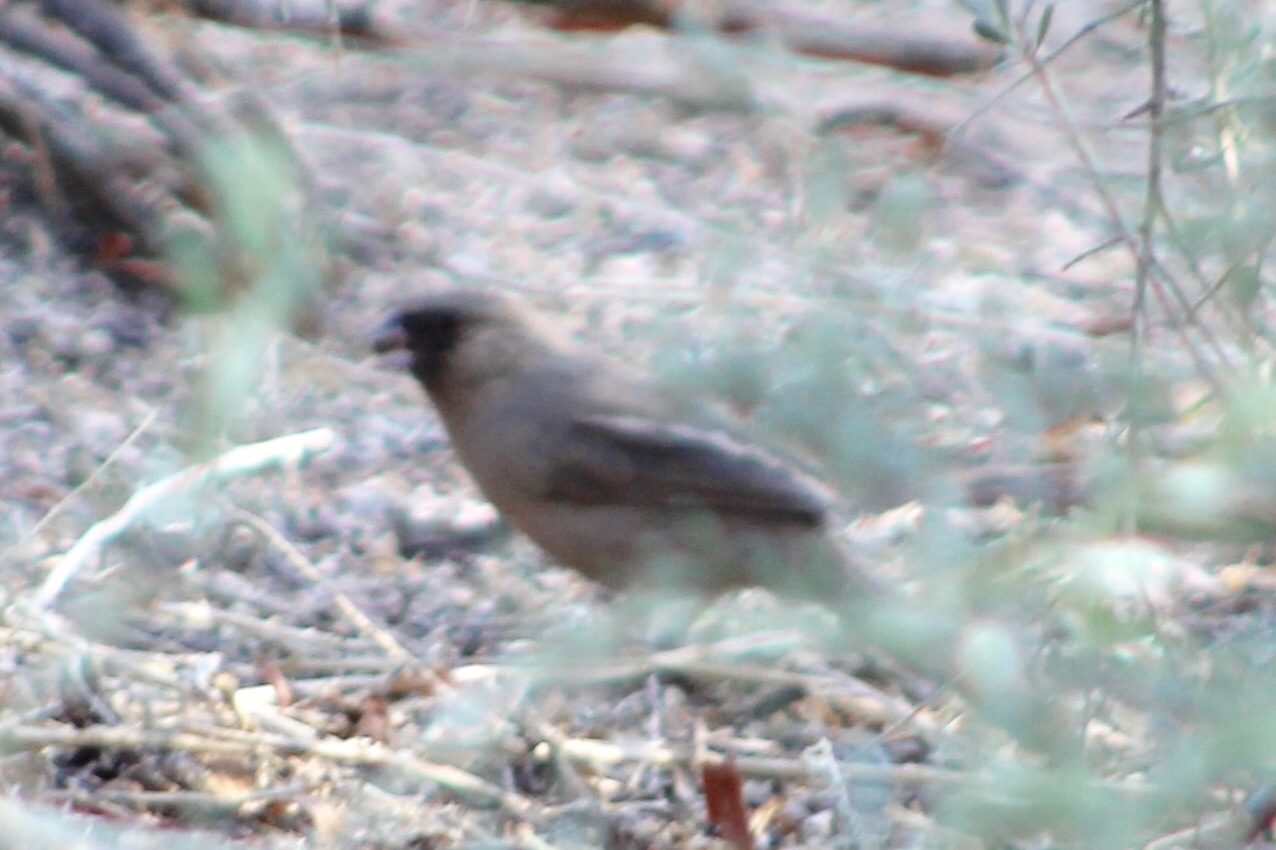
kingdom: Animalia
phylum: Chordata
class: Aves
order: Passeriformes
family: Passerellidae
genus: Melozone
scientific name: Melozone aberti
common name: Abert's towhee
